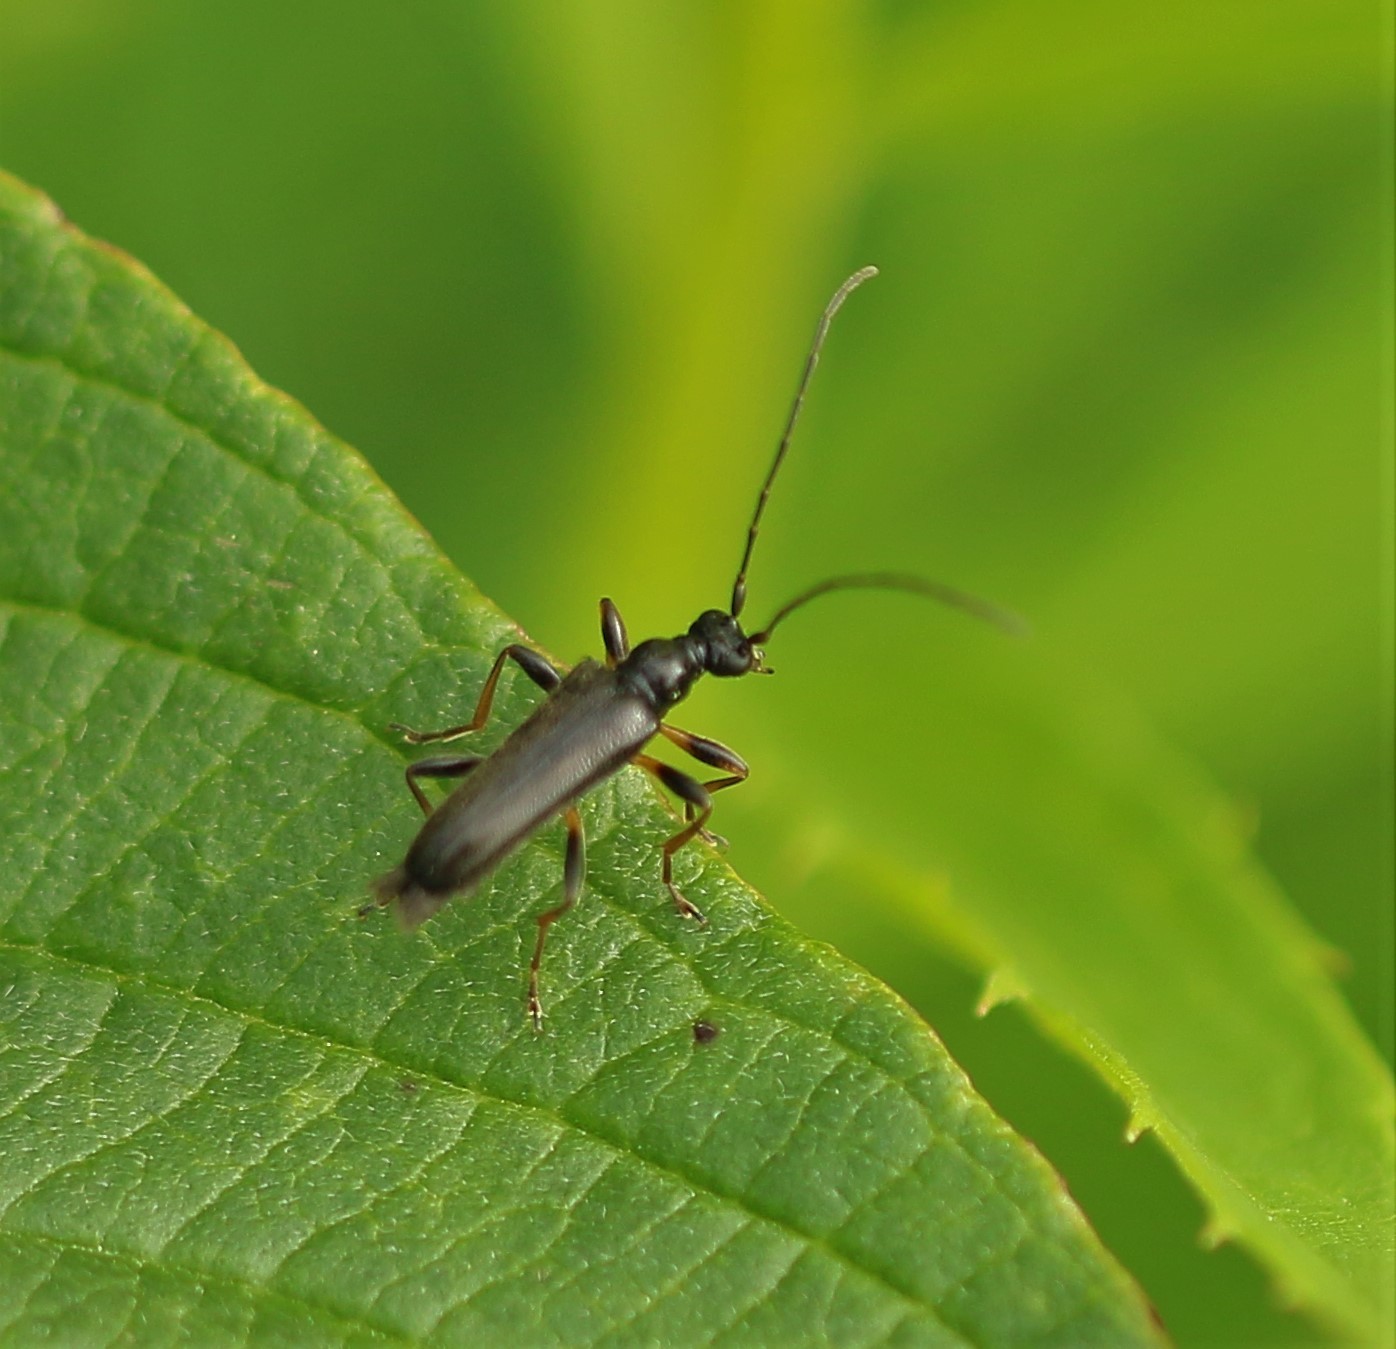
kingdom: Animalia
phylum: Arthropoda
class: Insecta
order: Coleoptera
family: Cerambycidae
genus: Pidonia
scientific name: Pidonia ruficollis
